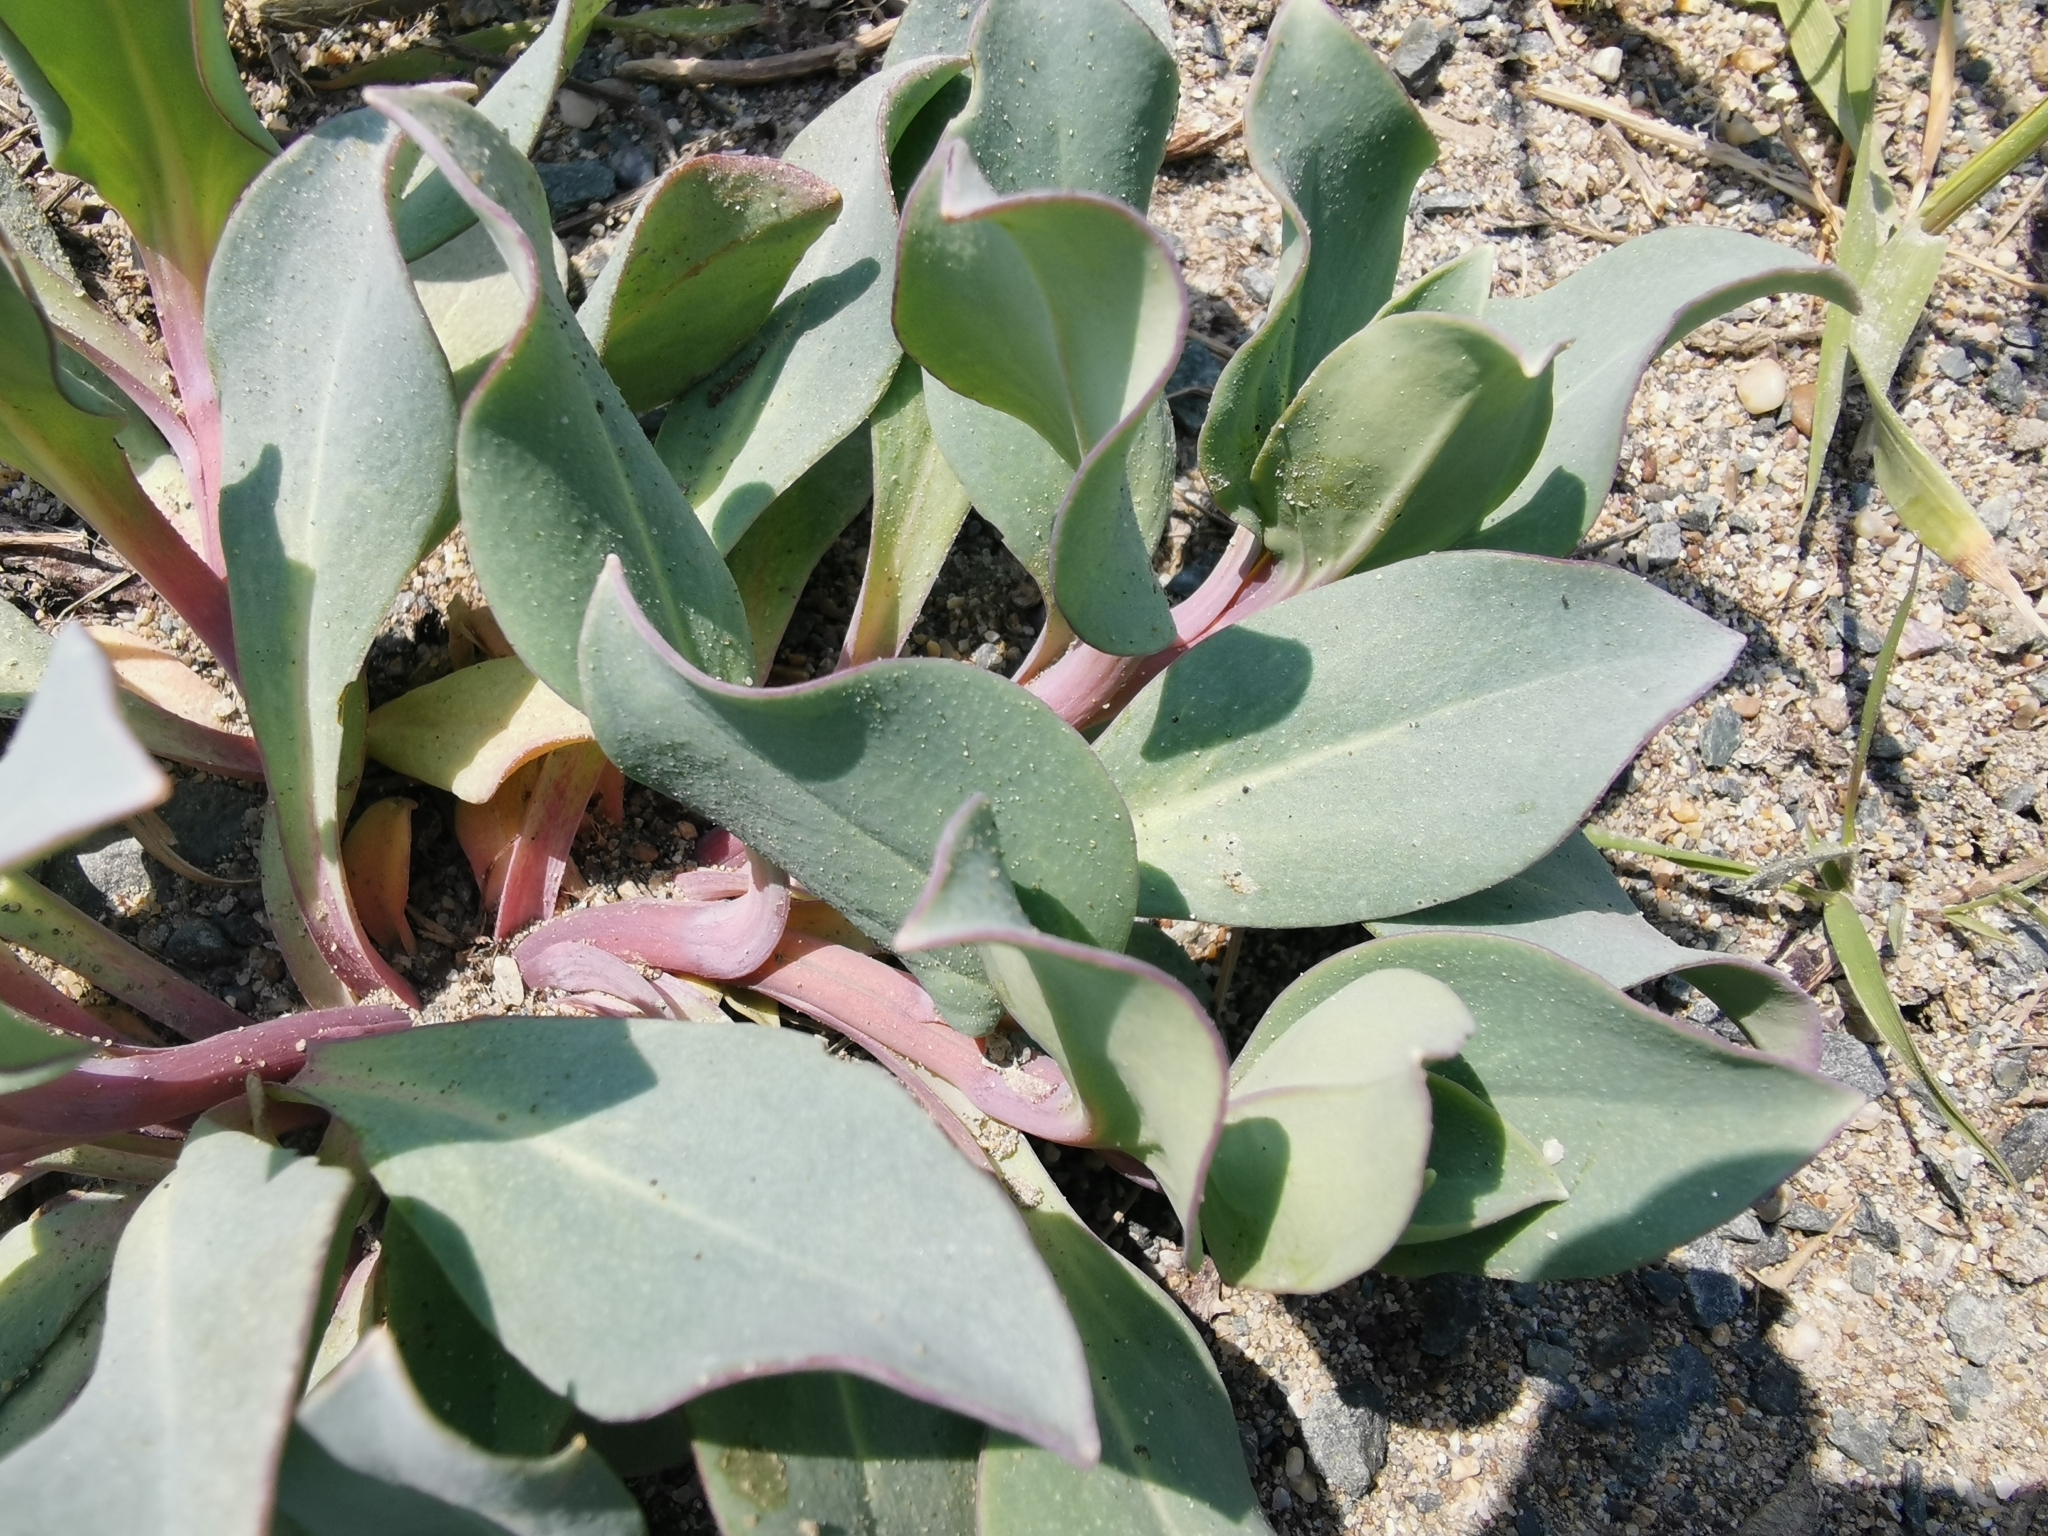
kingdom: Plantae
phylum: Tracheophyta
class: Magnoliopsida
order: Boraginales
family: Boraginaceae
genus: Mertensia
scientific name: Mertensia maritima
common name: Oysterplant
